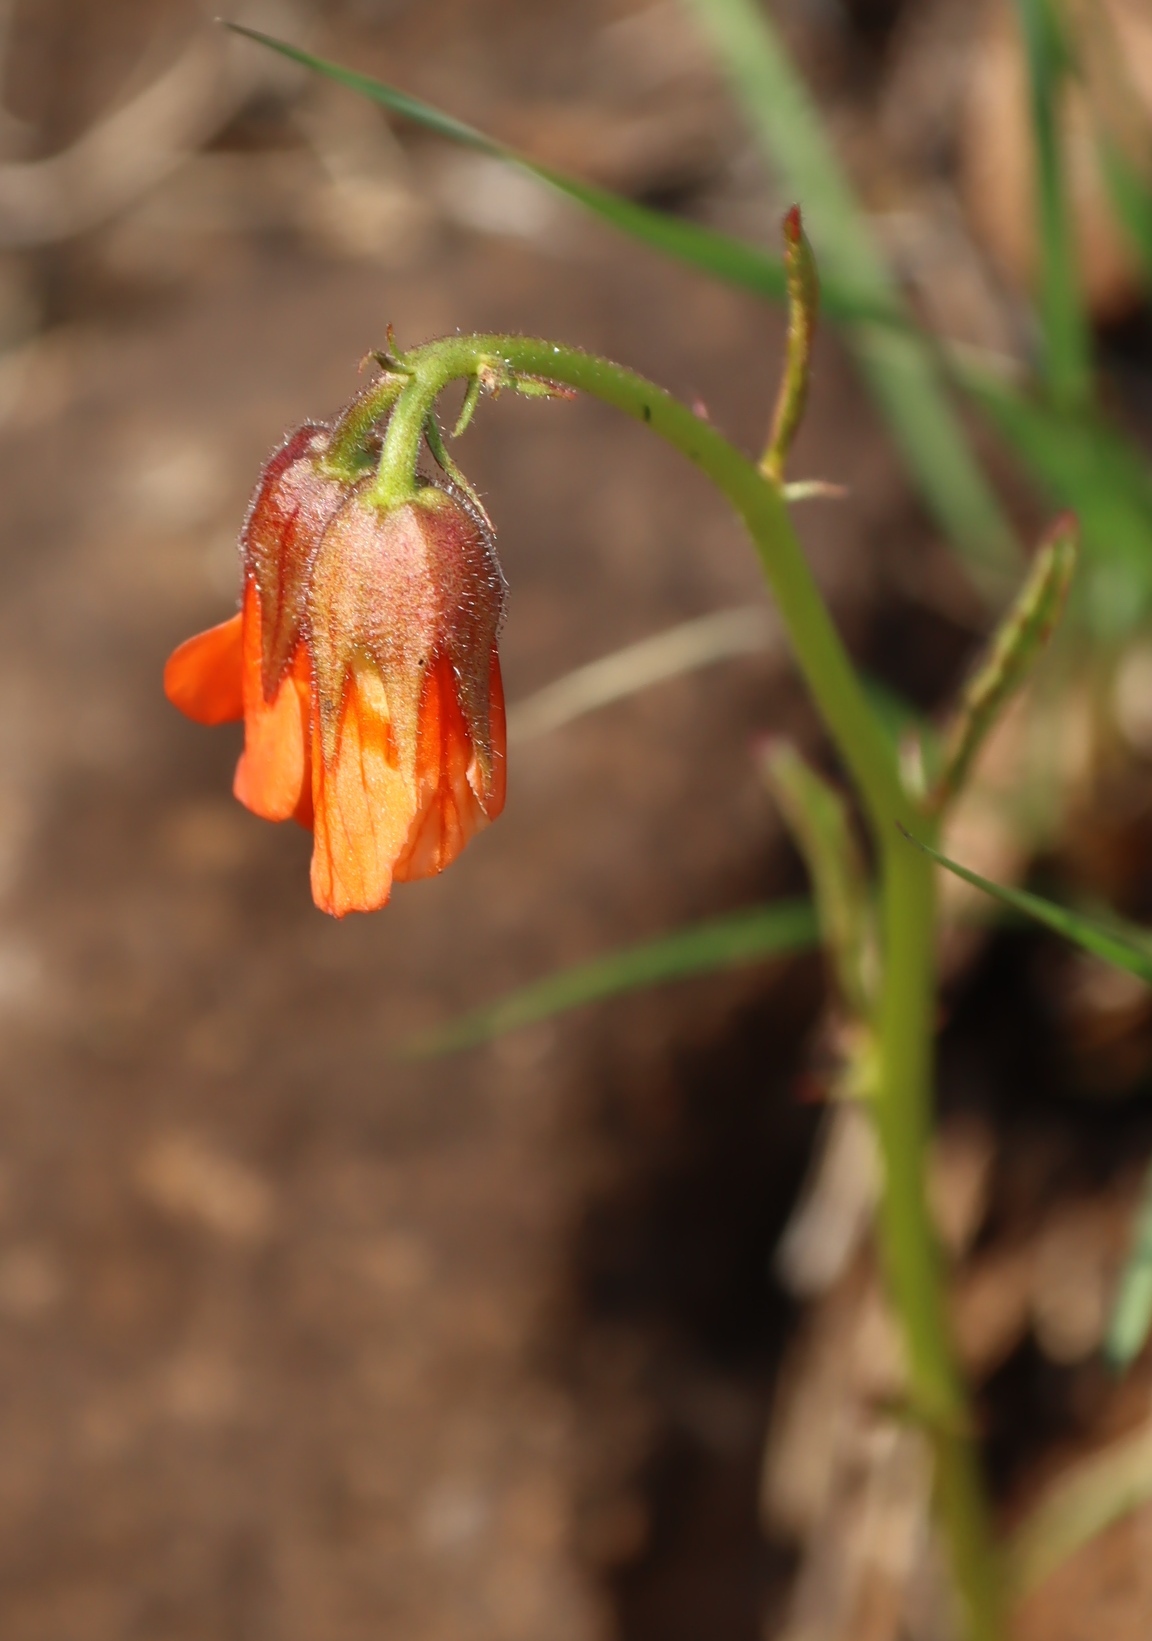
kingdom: Plantae
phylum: Tracheophyta
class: Magnoliopsida
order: Malvales
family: Malvaceae
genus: Hermannia
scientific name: Hermannia cristata
